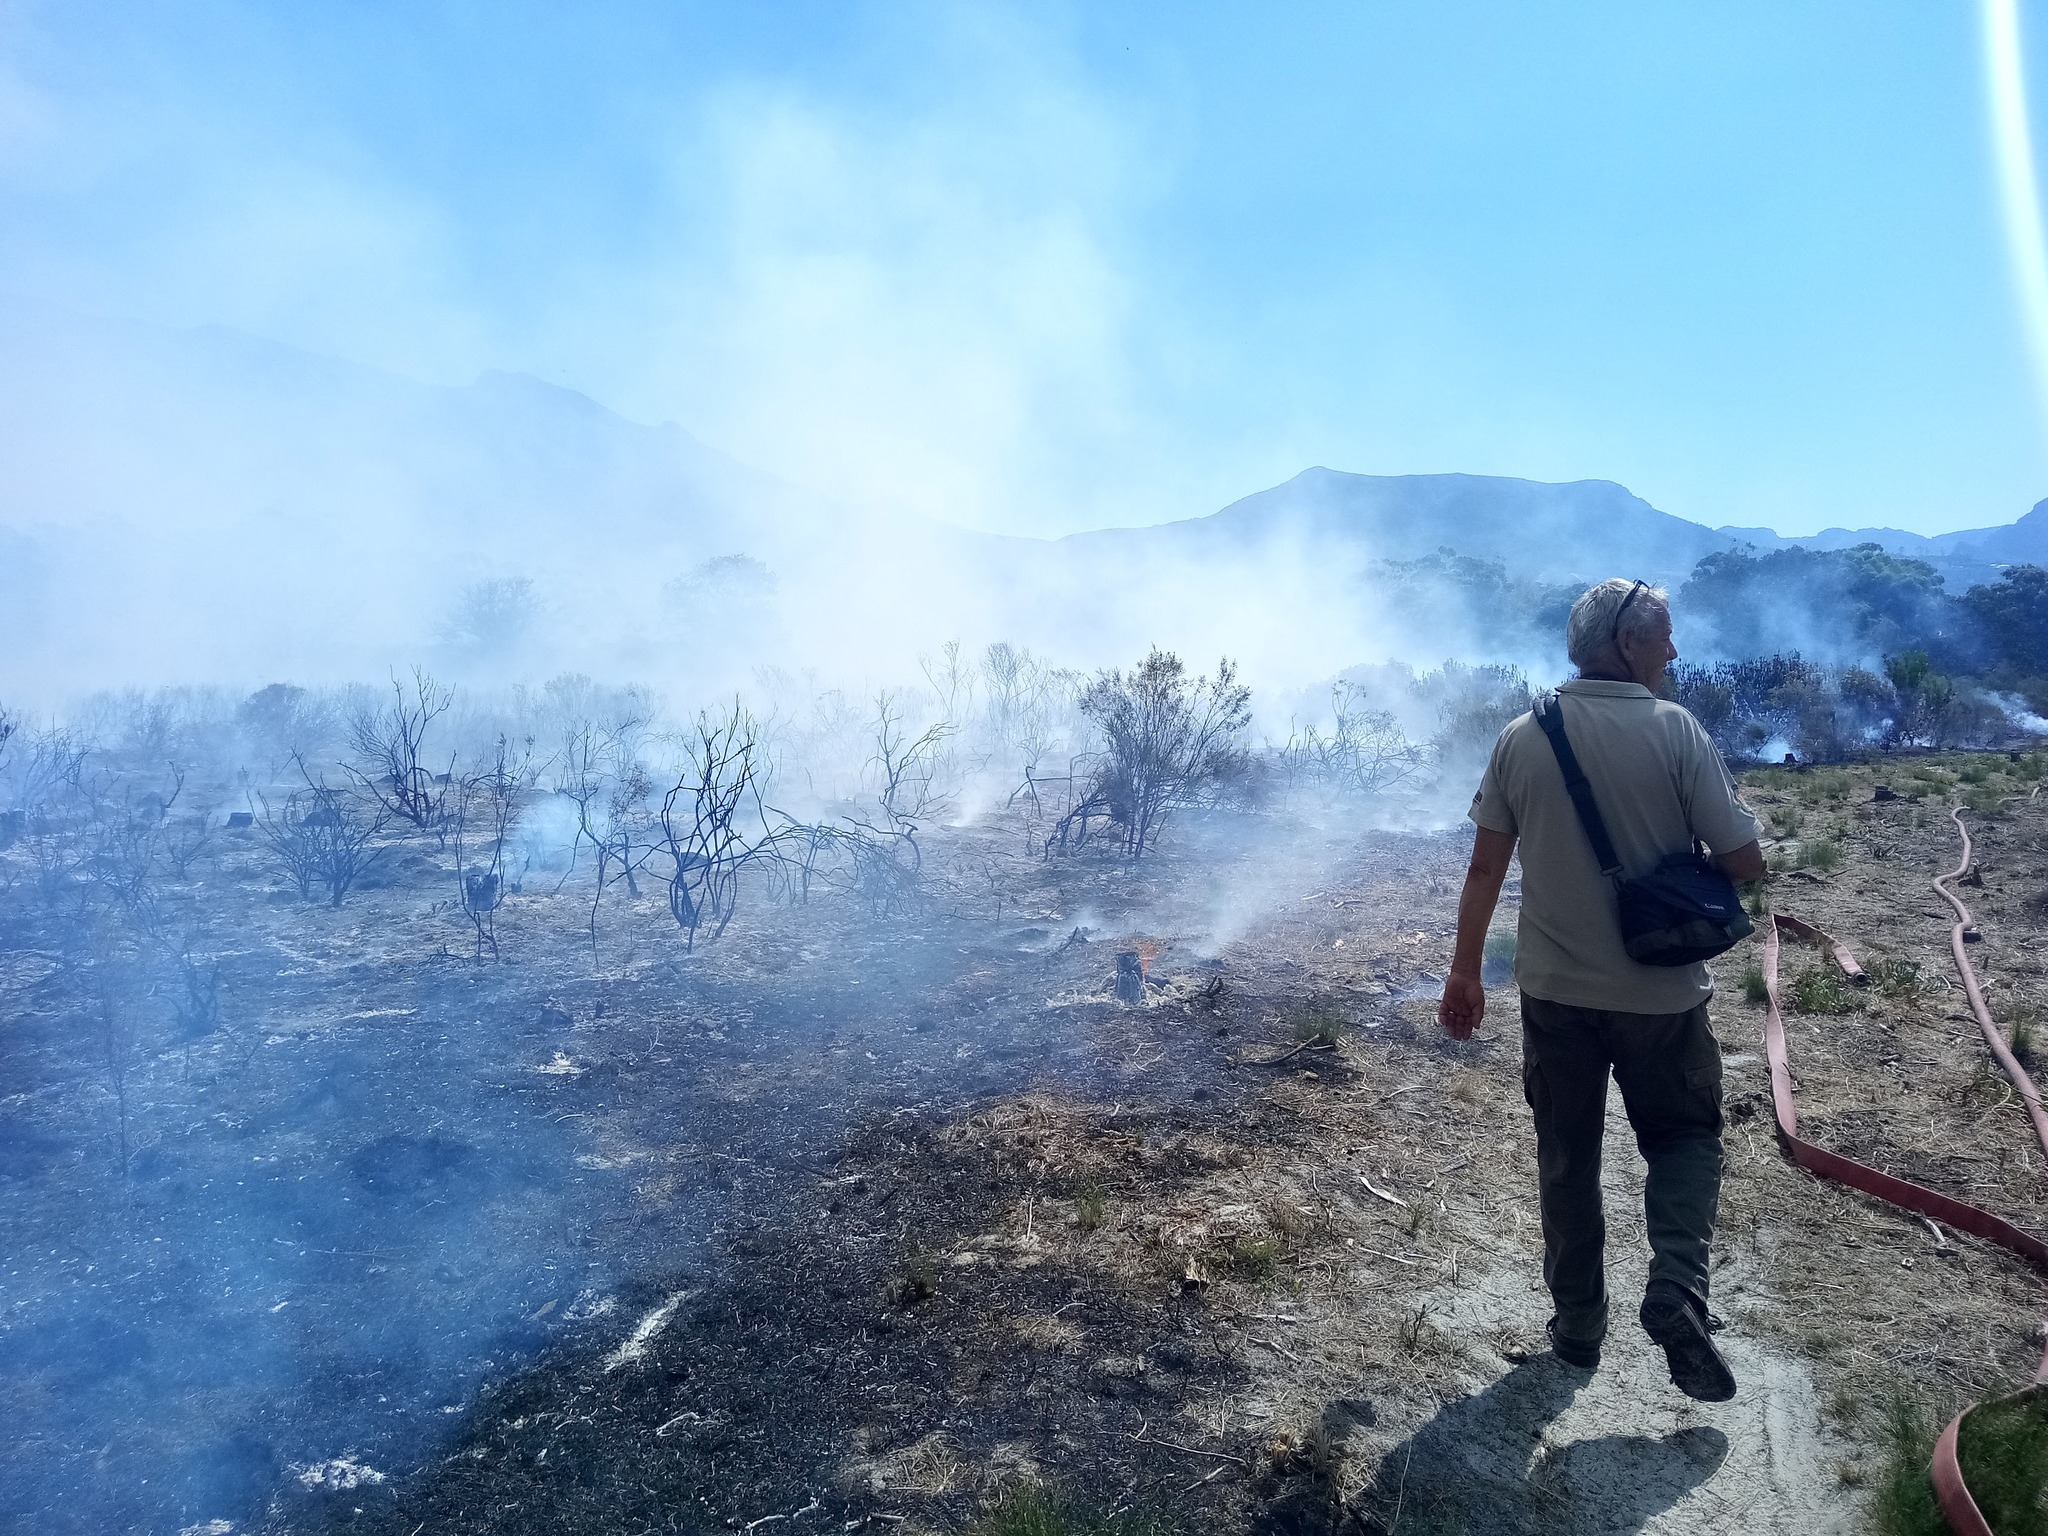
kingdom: Plantae
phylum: Tracheophyta
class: Magnoliopsida
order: Asterales
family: Asteraceae
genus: Osteospermum
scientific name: Osteospermum moniliferum
